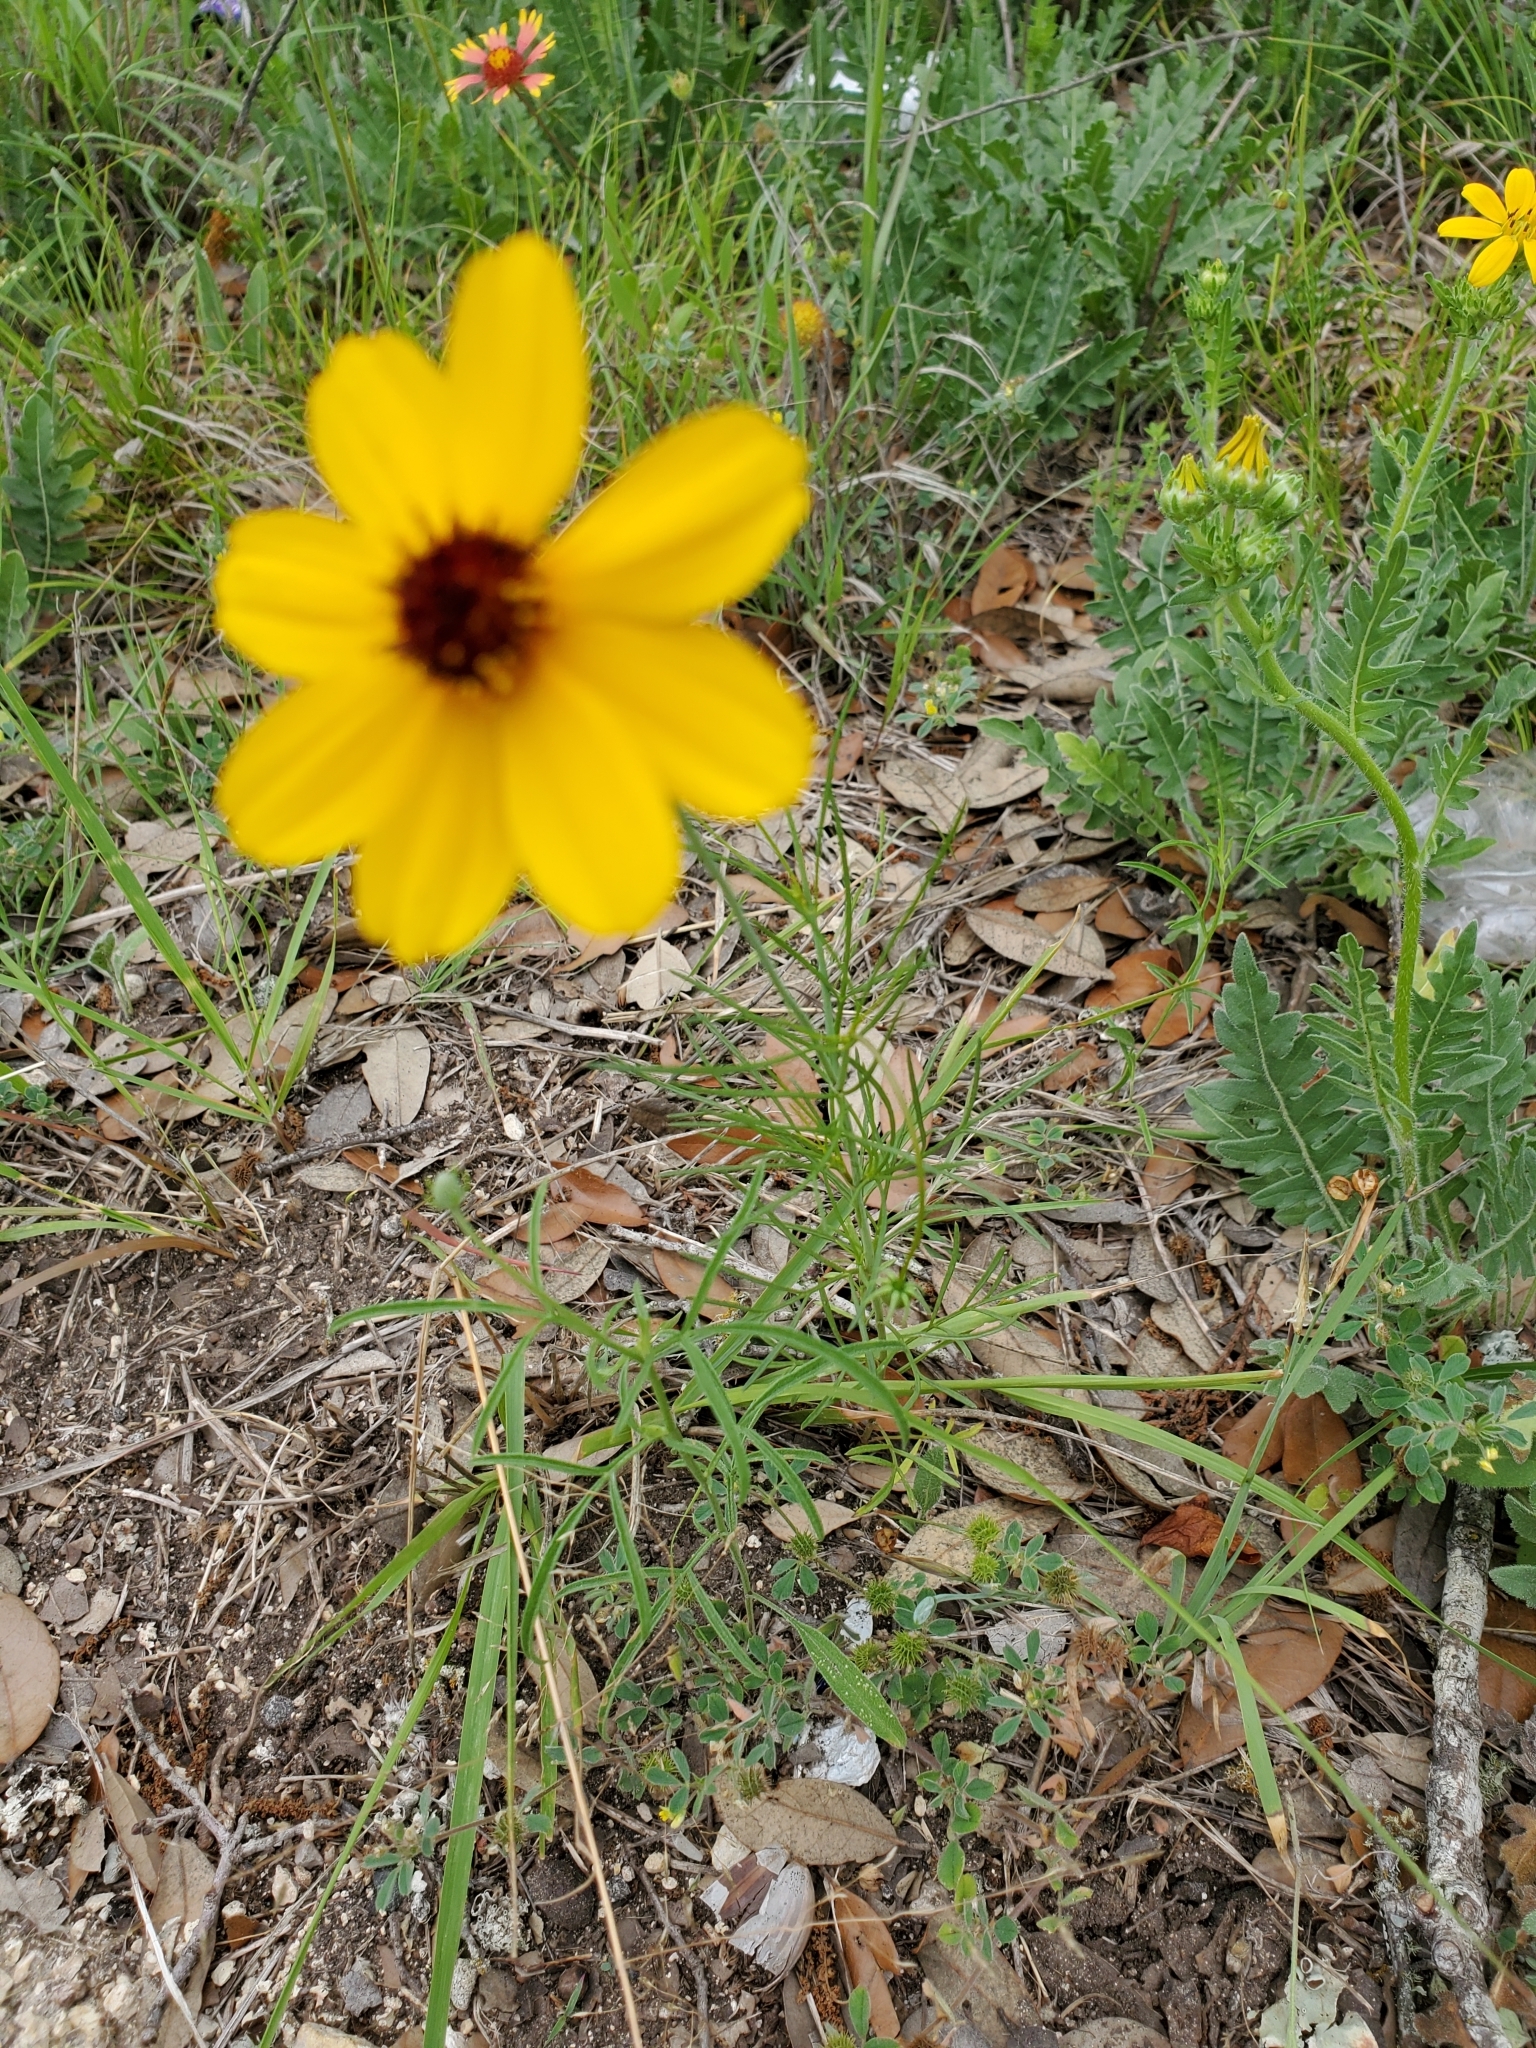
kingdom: Plantae
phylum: Tracheophyta
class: Magnoliopsida
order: Asterales
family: Asteraceae
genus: Thelesperma
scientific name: Thelesperma filifolium
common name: Stiff greenthread
